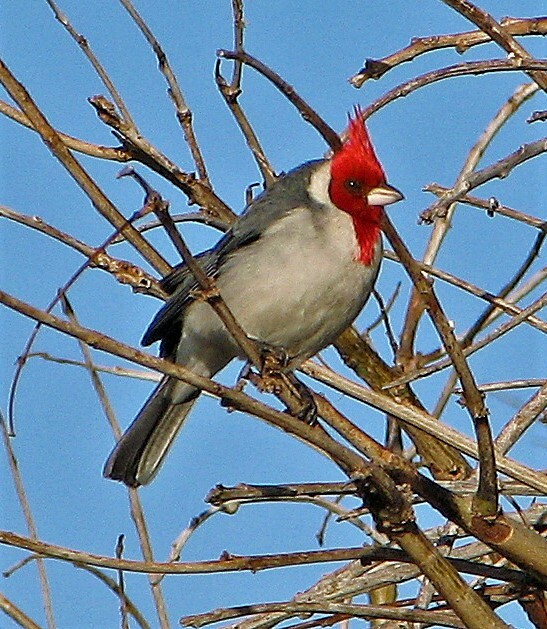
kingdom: Animalia
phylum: Chordata
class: Aves
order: Passeriformes
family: Thraupidae
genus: Paroaria
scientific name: Paroaria coronata
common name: Red-crested cardinal
